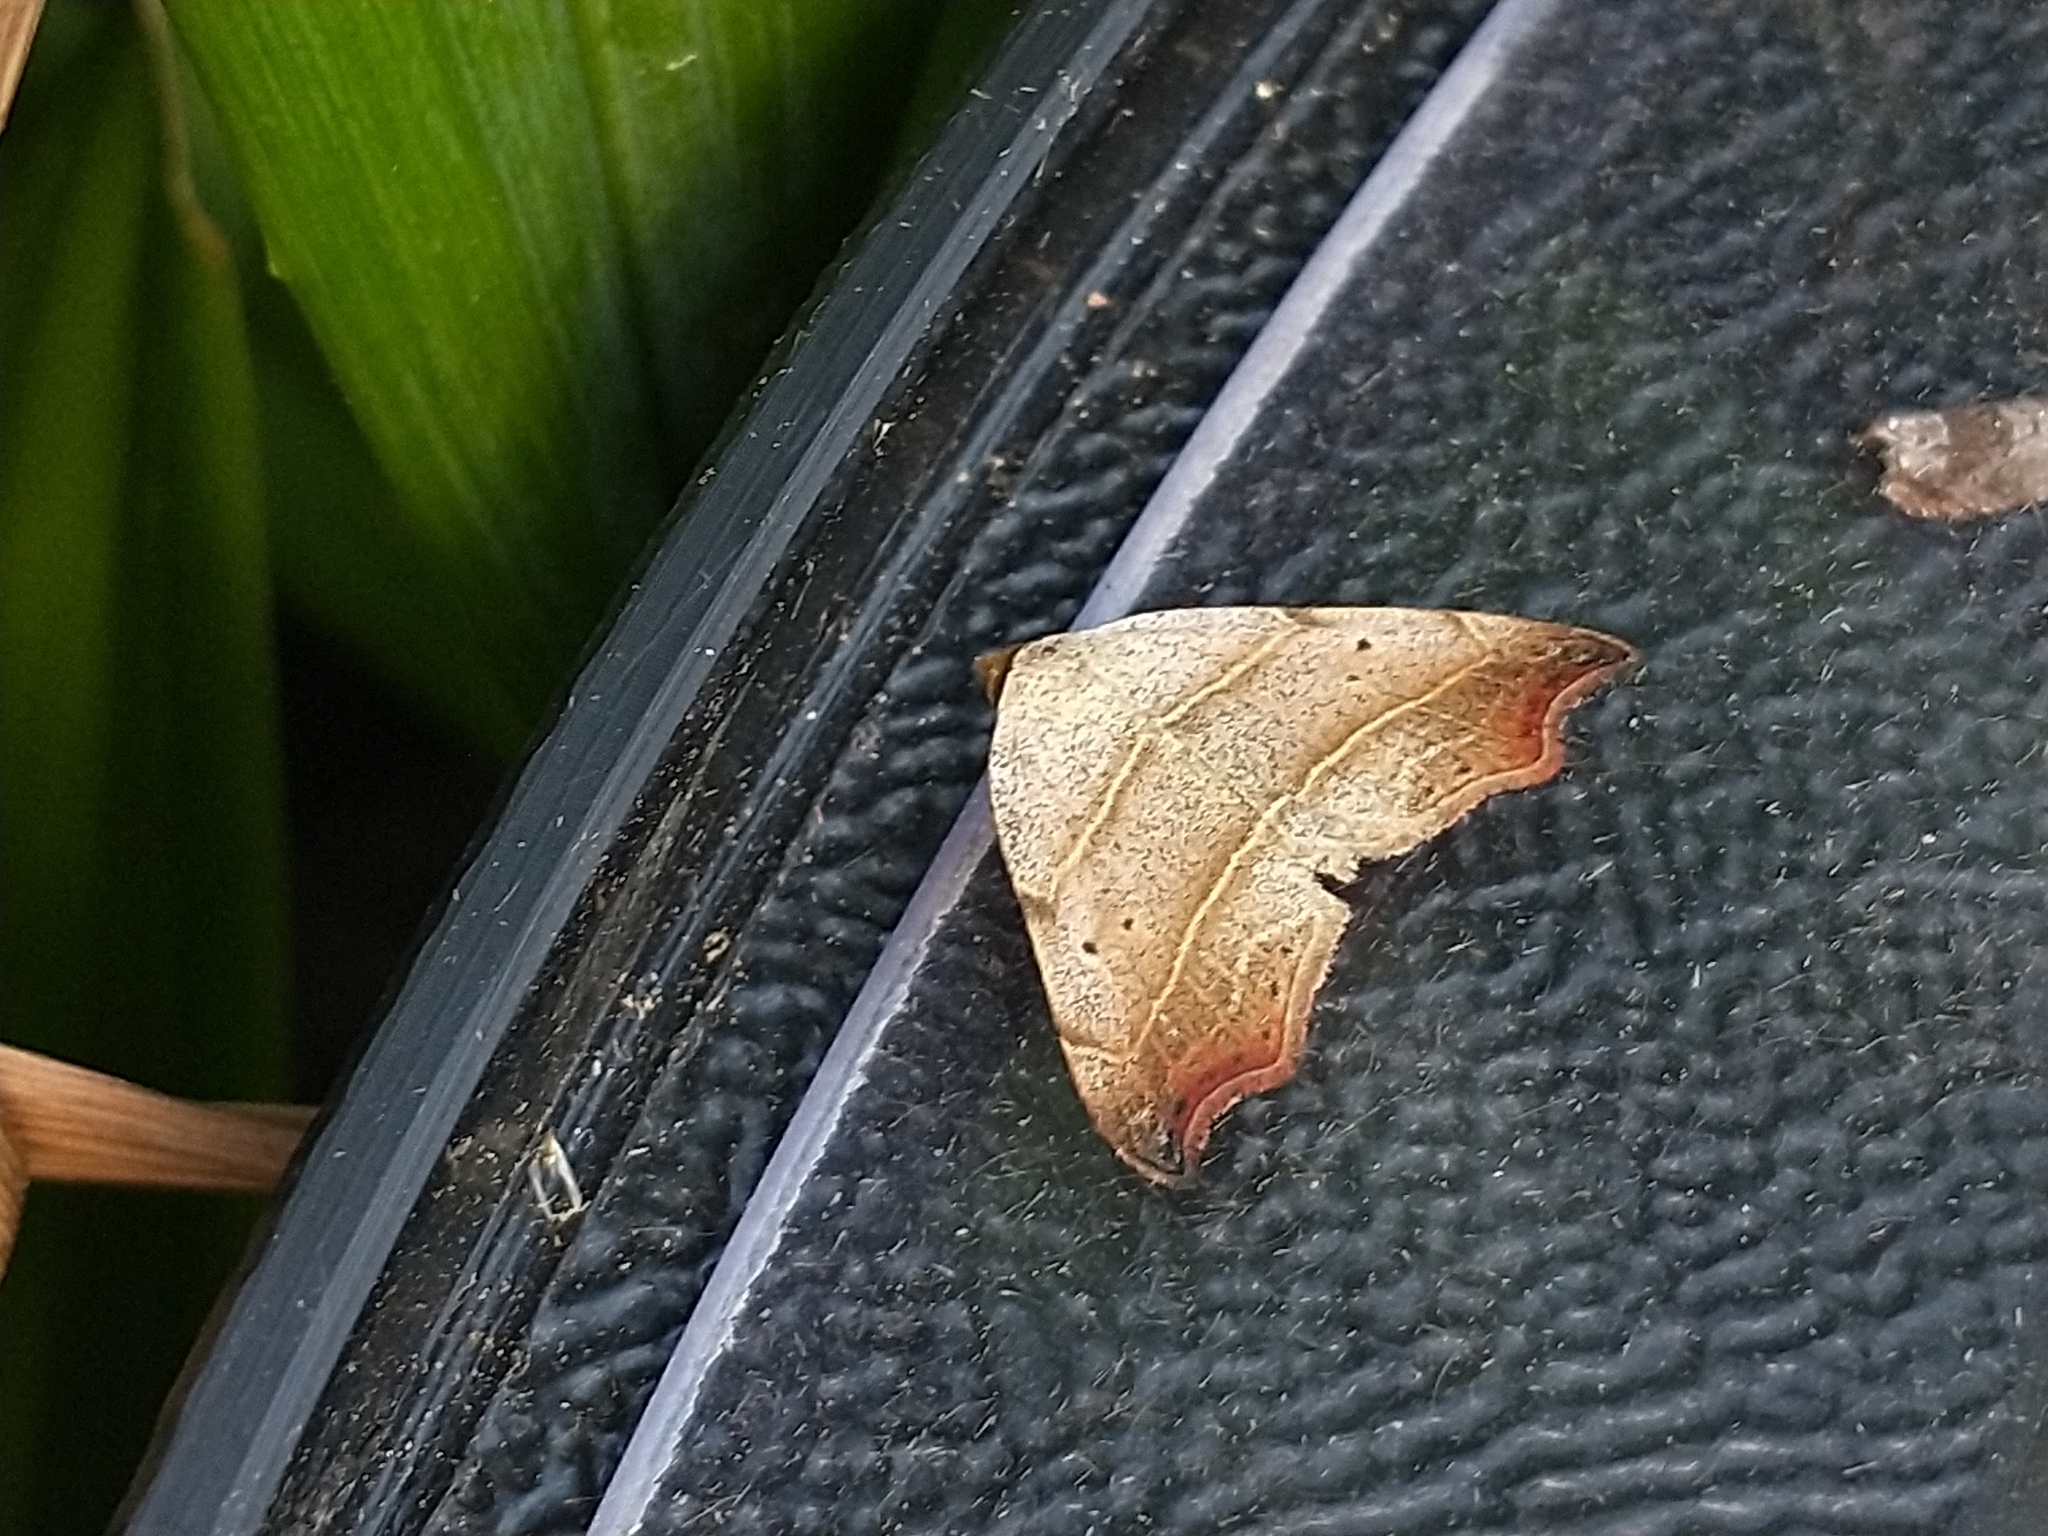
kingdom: Animalia
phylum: Arthropoda
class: Insecta
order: Lepidoptera
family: Erebidae
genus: Laspeyria
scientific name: Laspeyria flexula
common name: Beautiful hook-tip
